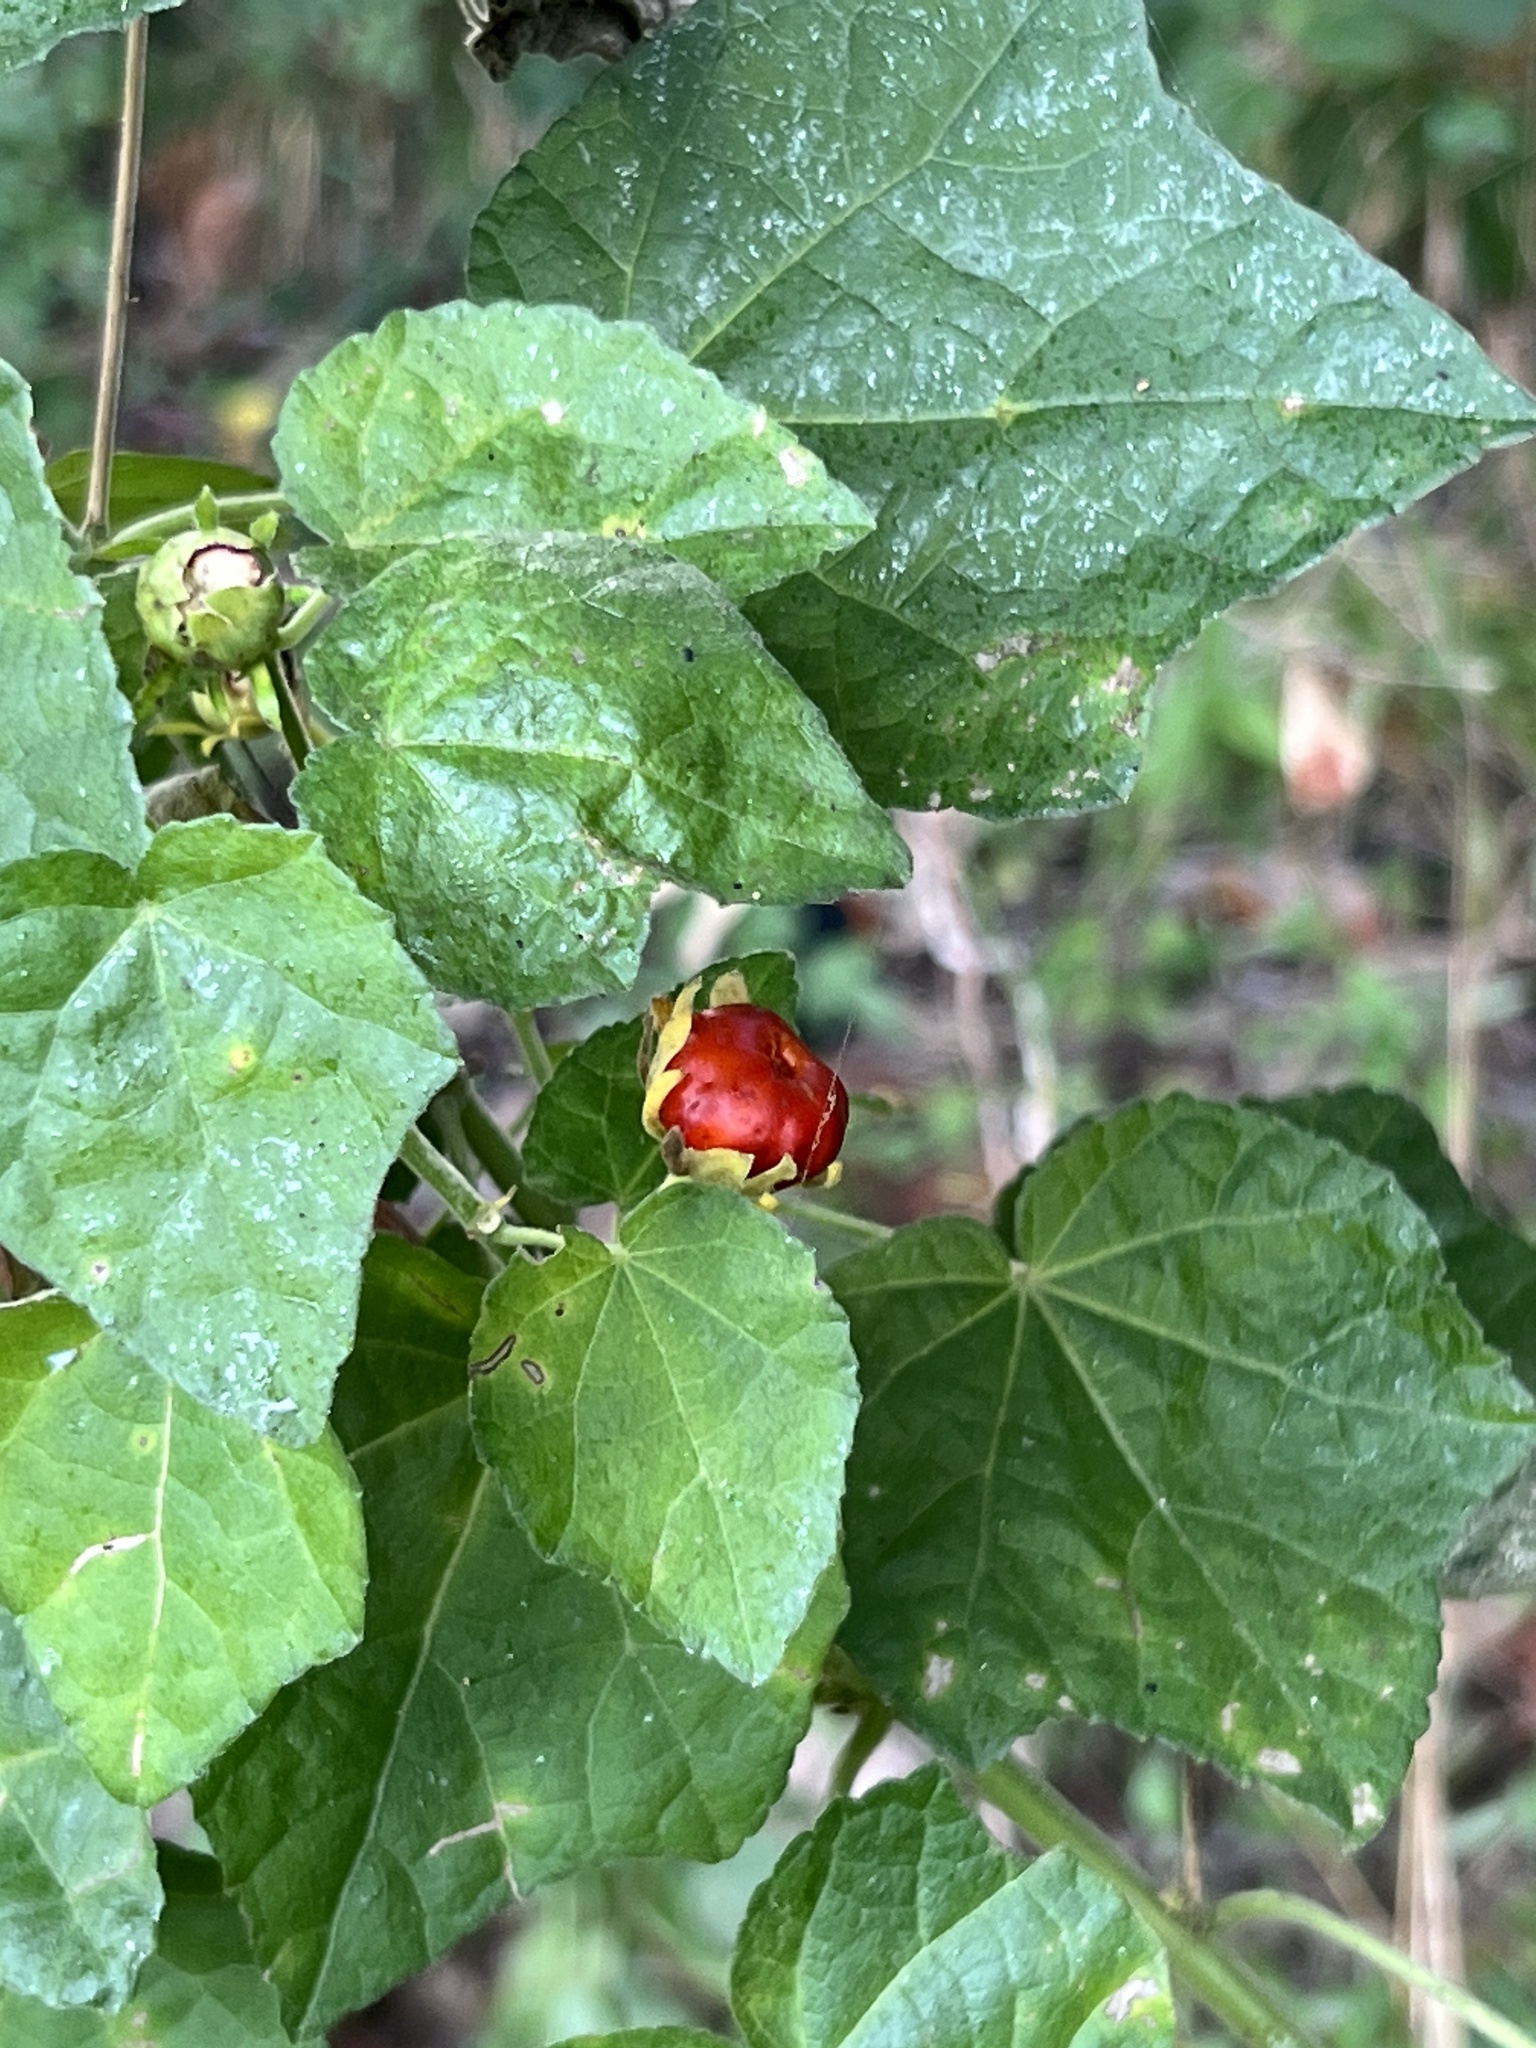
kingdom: Plantae
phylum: Tracheophyta
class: Magnoliopsida
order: Malvales
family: Malvaceae
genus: Malvaviscus
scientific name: Malvaviscus arboreus
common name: Wax mallow
